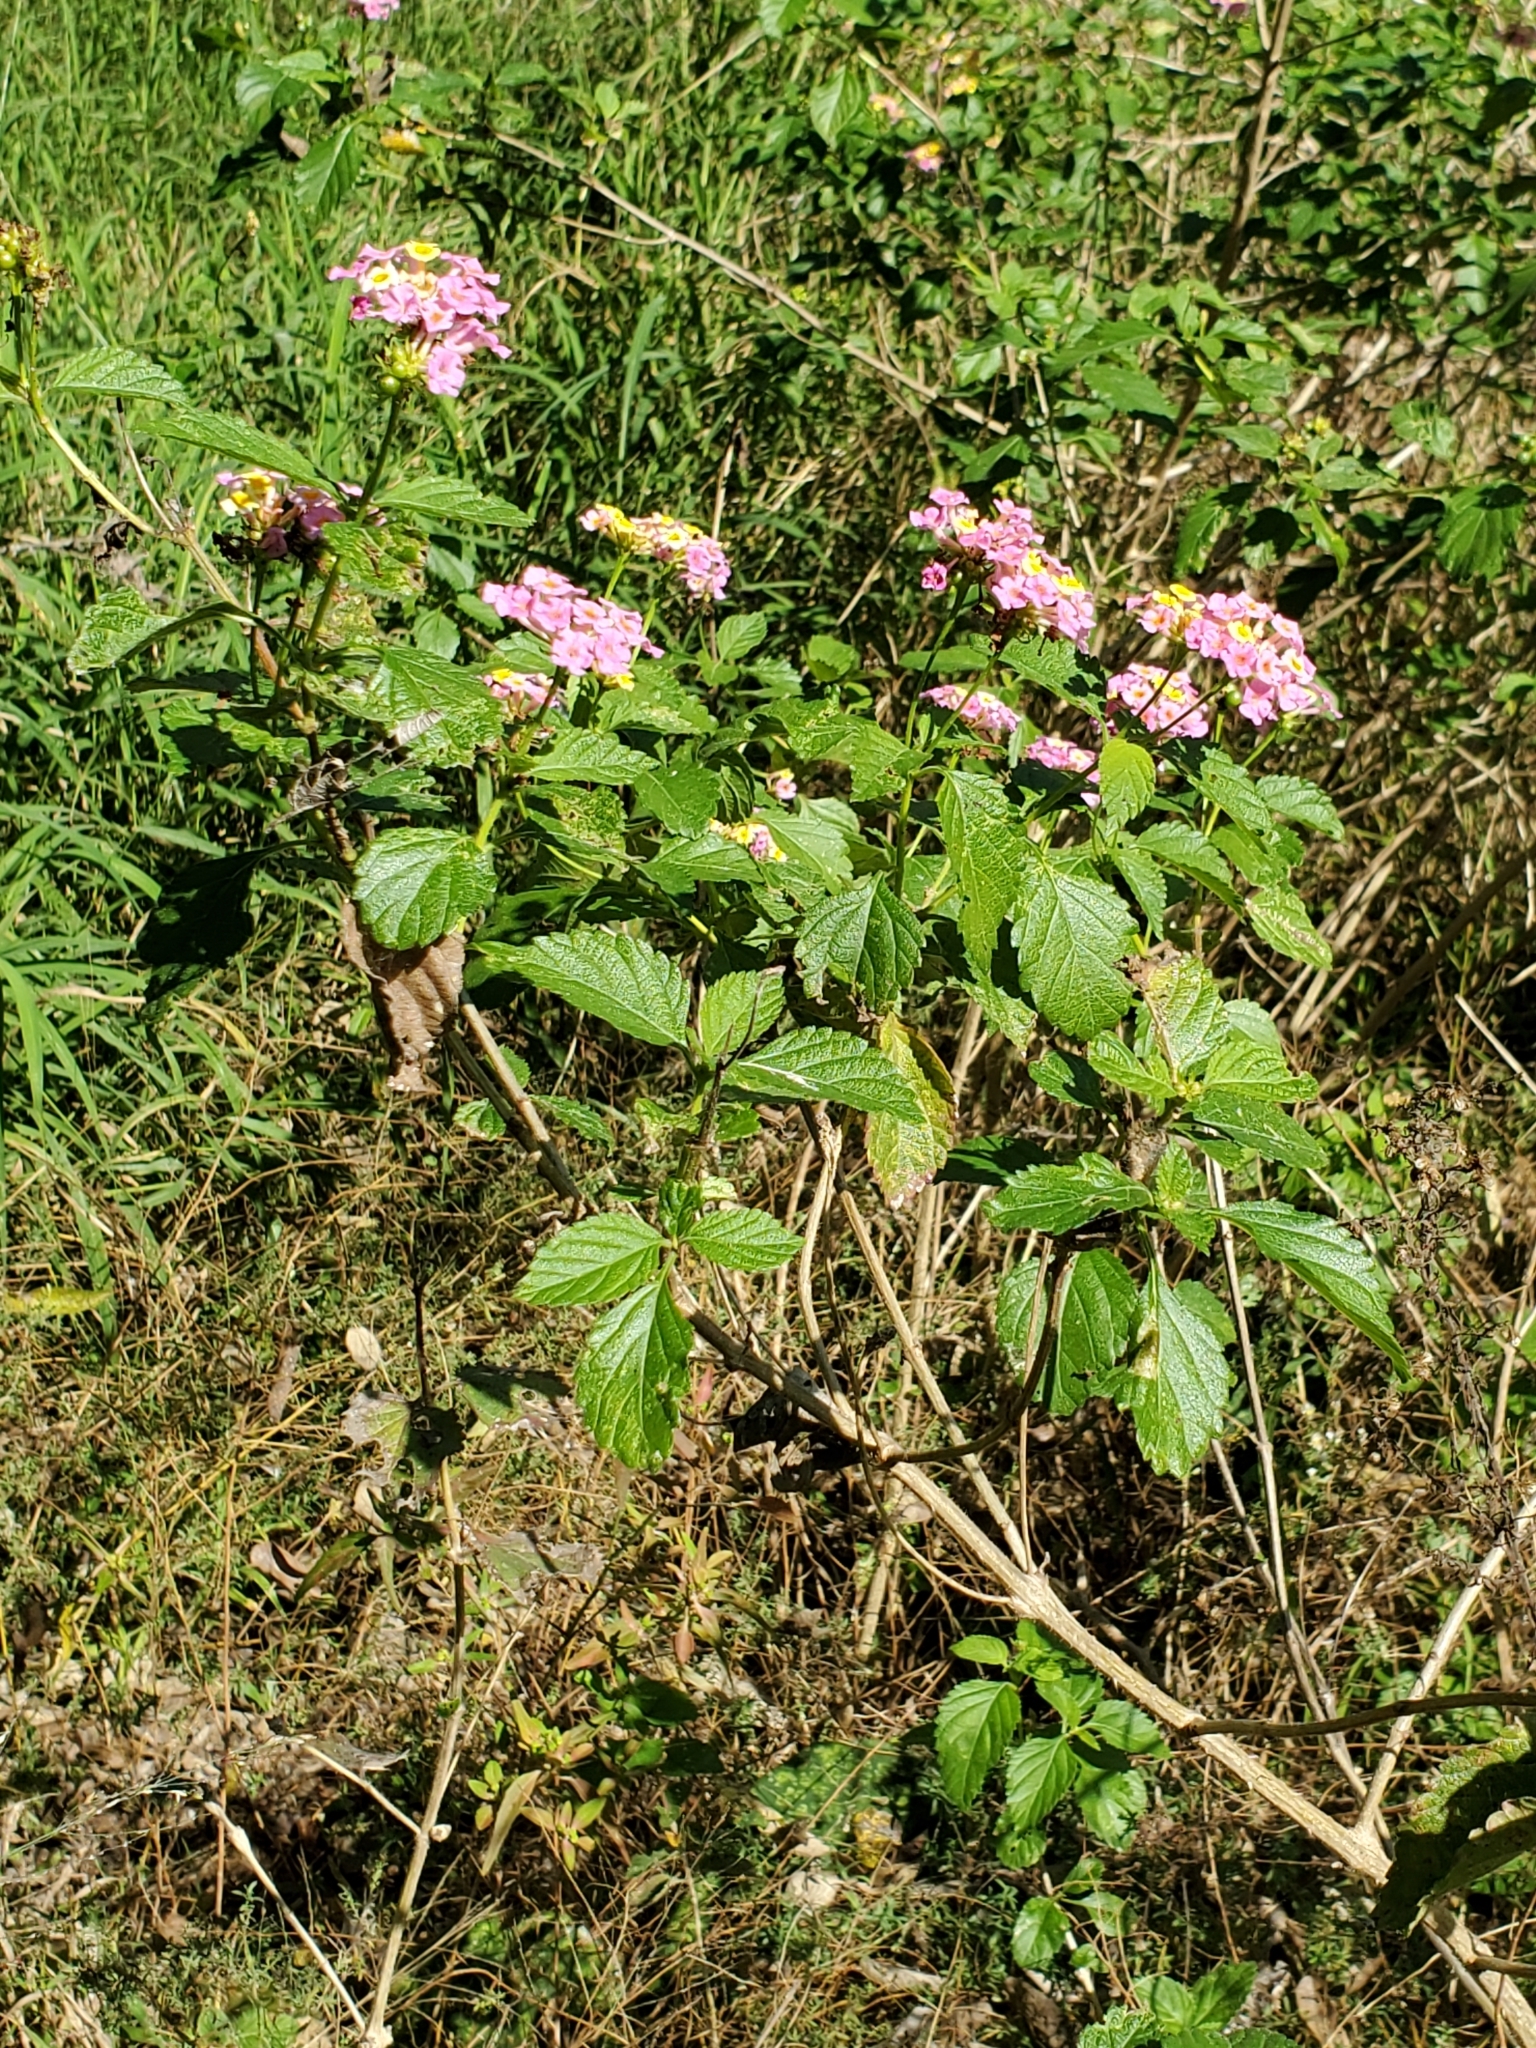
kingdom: Plantae
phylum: Tracheophyta
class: Magnoliopsida
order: Lamiales
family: Verbenaceae
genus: Lantana
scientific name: Lantana strigocamara
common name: Lantana
